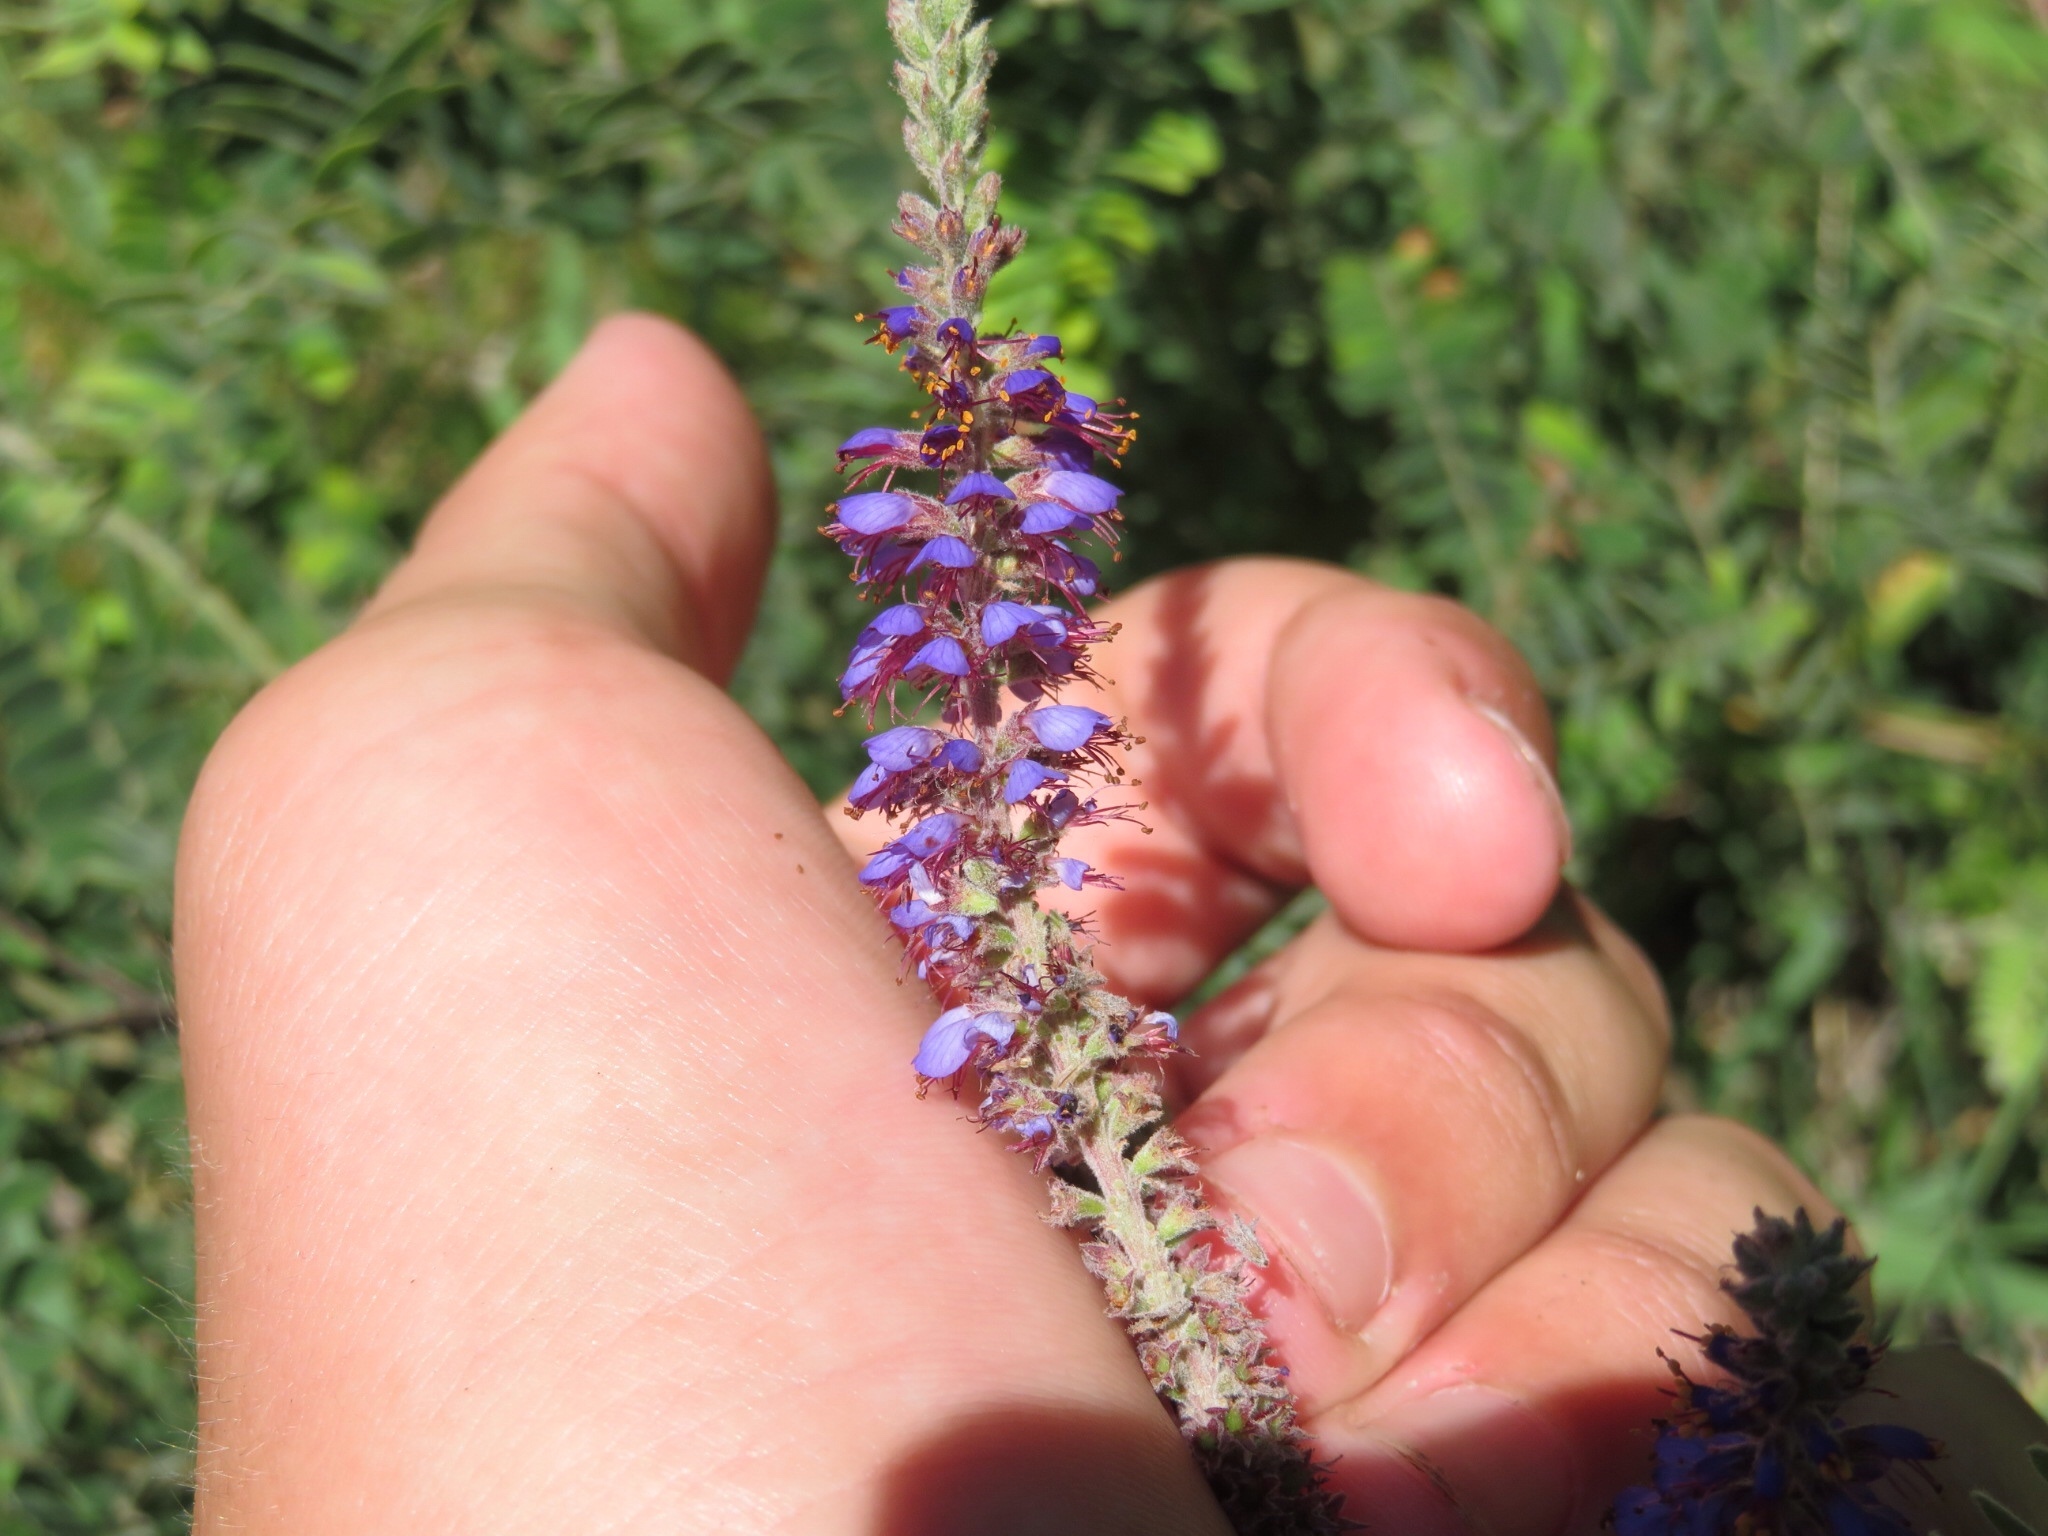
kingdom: Plantae
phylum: Tracheophyta
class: Magnoliopsida
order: Fabales
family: Fabaceae
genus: Amorpha
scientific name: Amorpha canescens
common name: Leadplant
